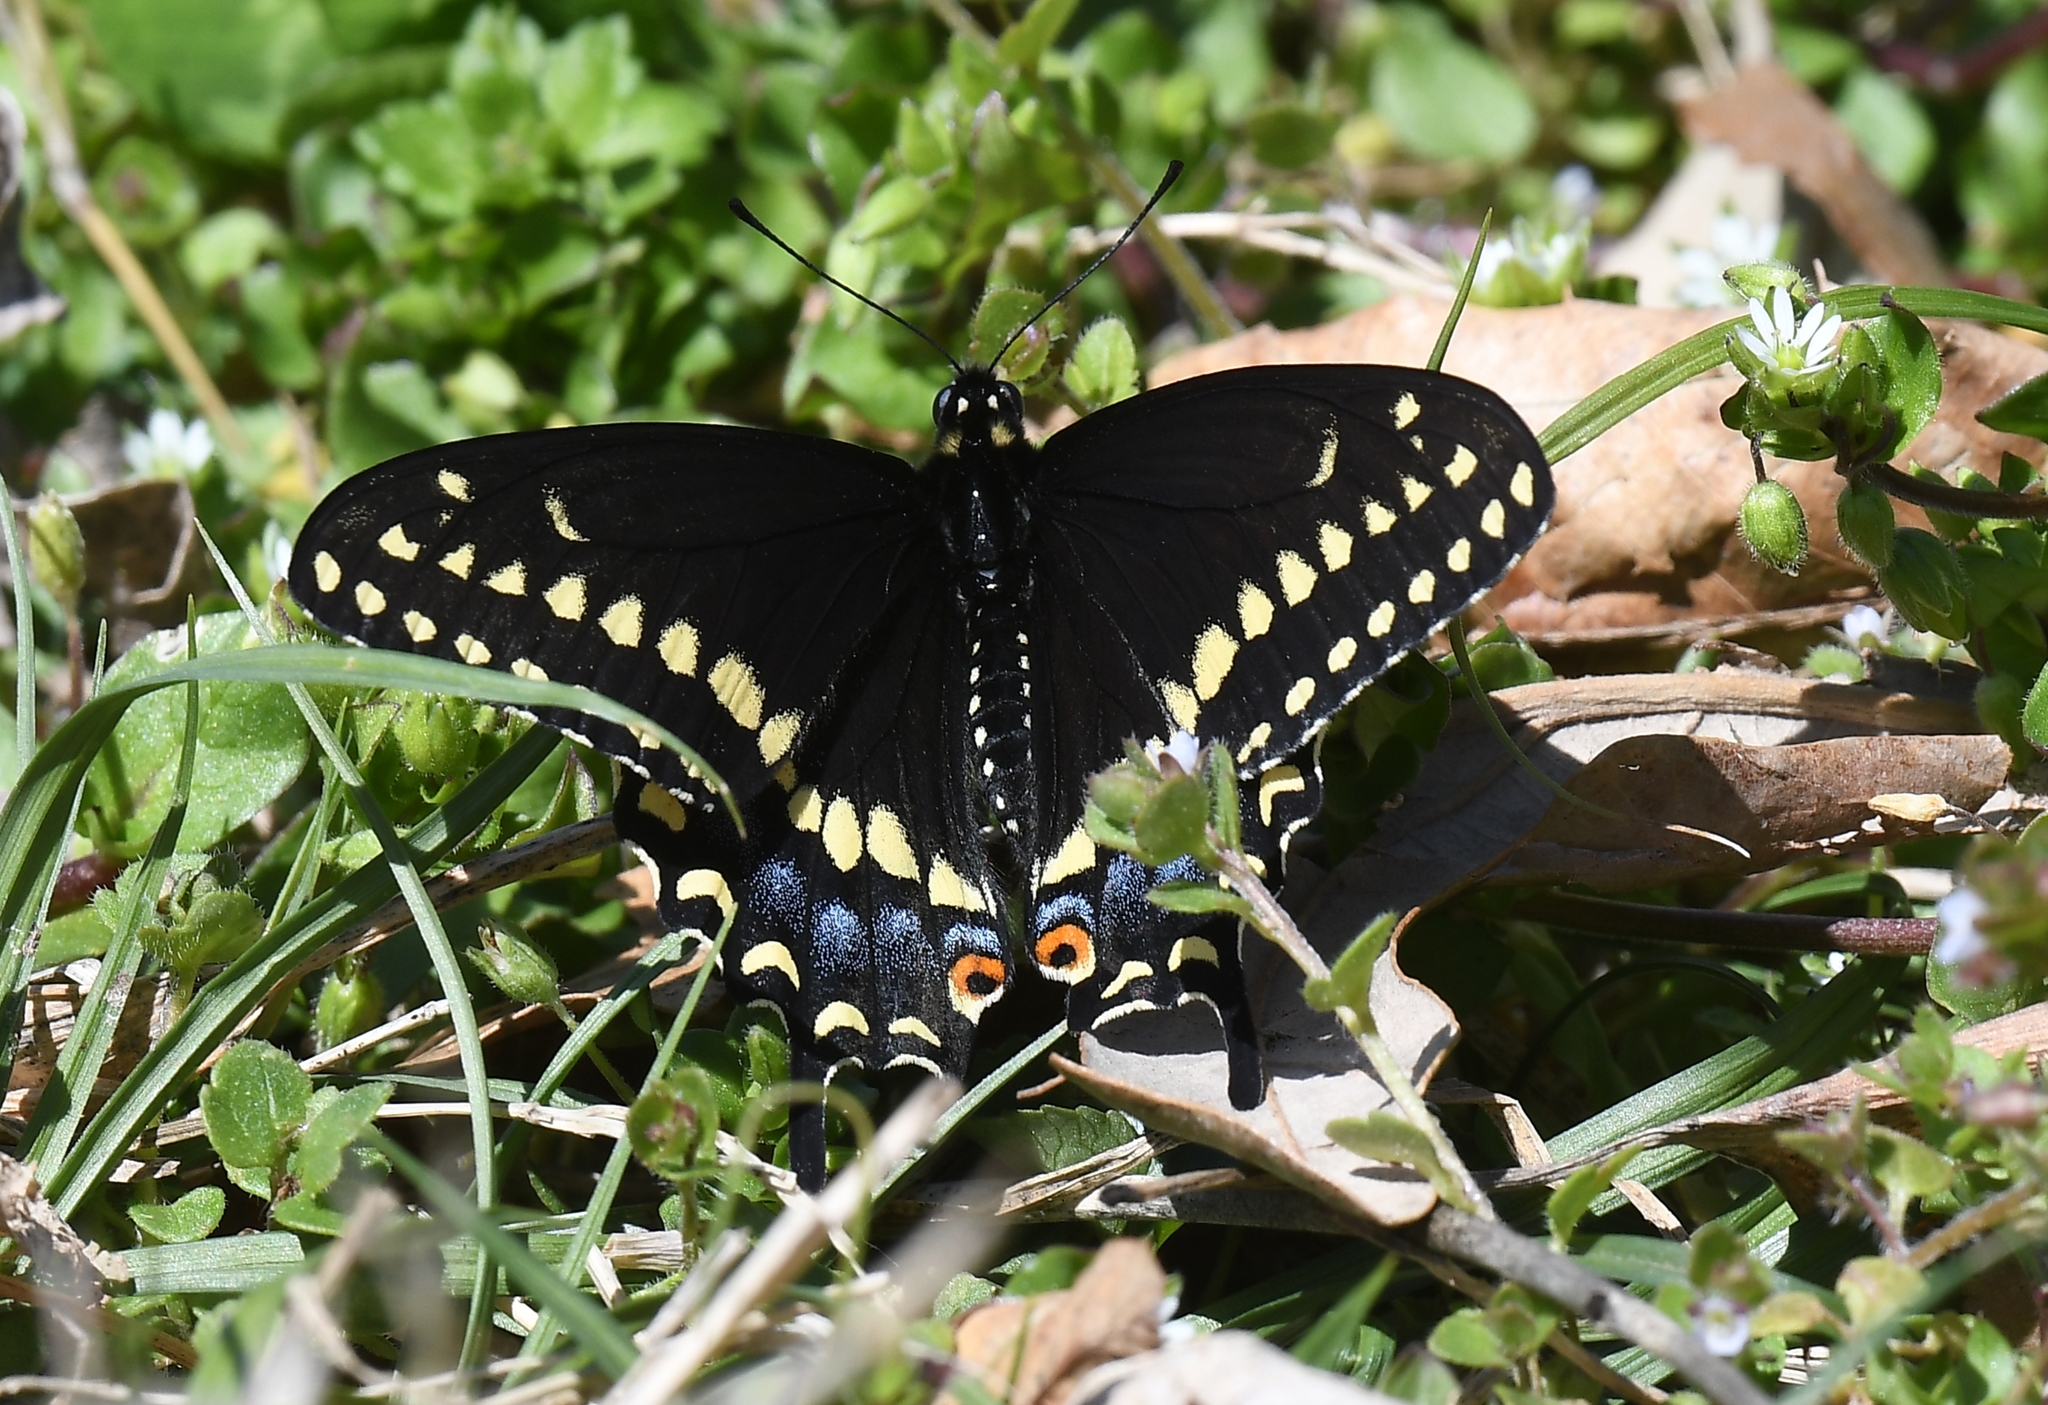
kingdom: Animalia
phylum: Arthropoda
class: Insecta
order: Lepidoptera
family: Papilionidae
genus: Papilio
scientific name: Papilio polyxenes
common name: Black swallowtail
